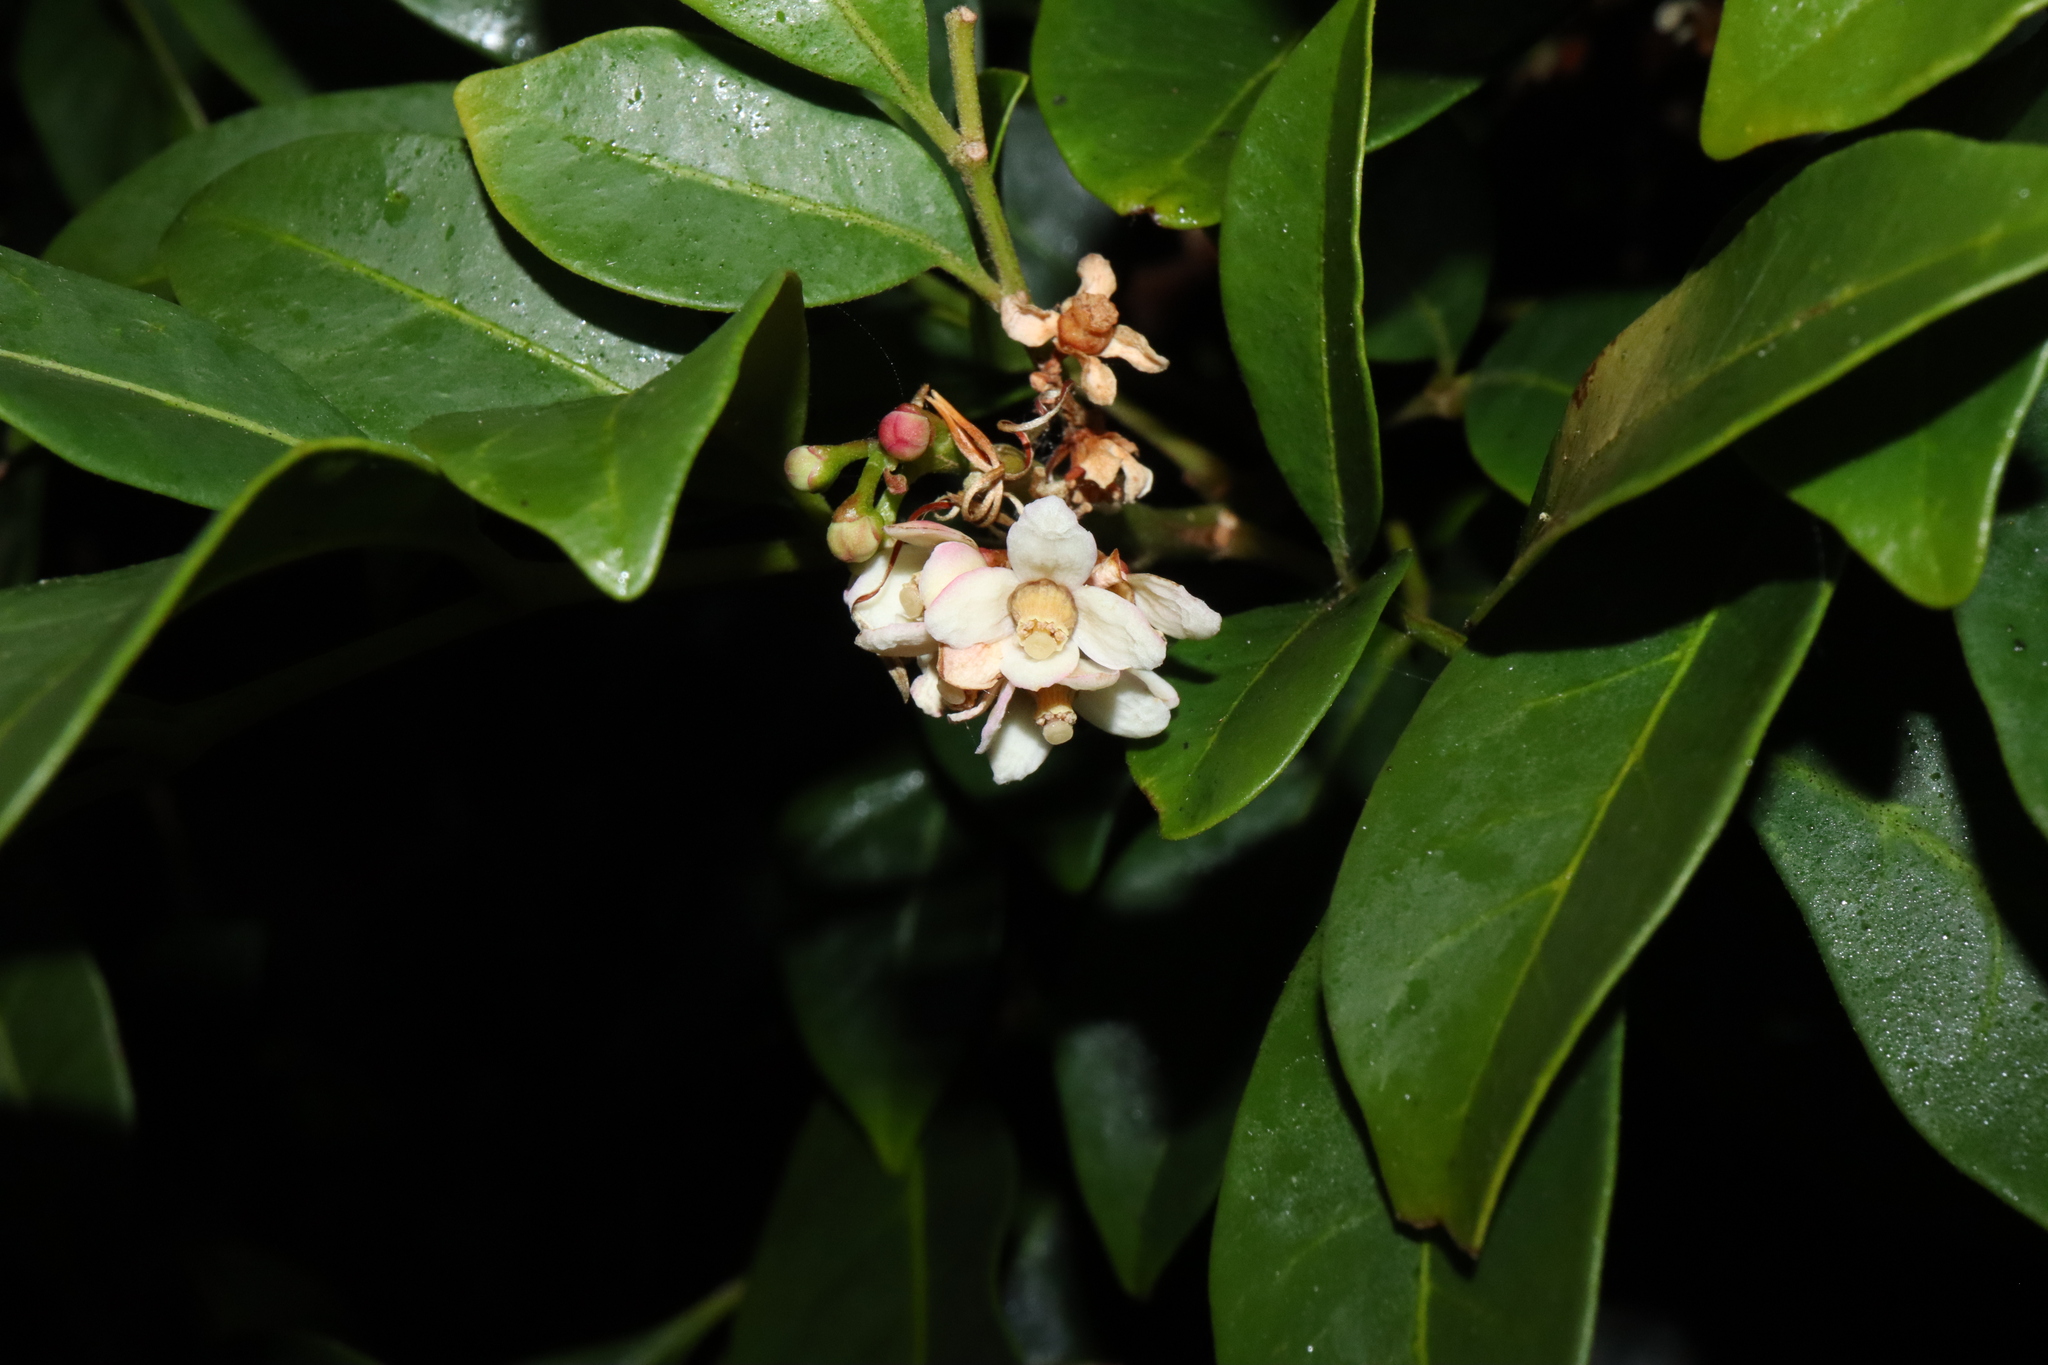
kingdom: Plantae
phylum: Tracheophyta
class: Magnoliopsida
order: Sapindales
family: Meliaceae
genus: Synoum
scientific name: Synoum glandulosum
